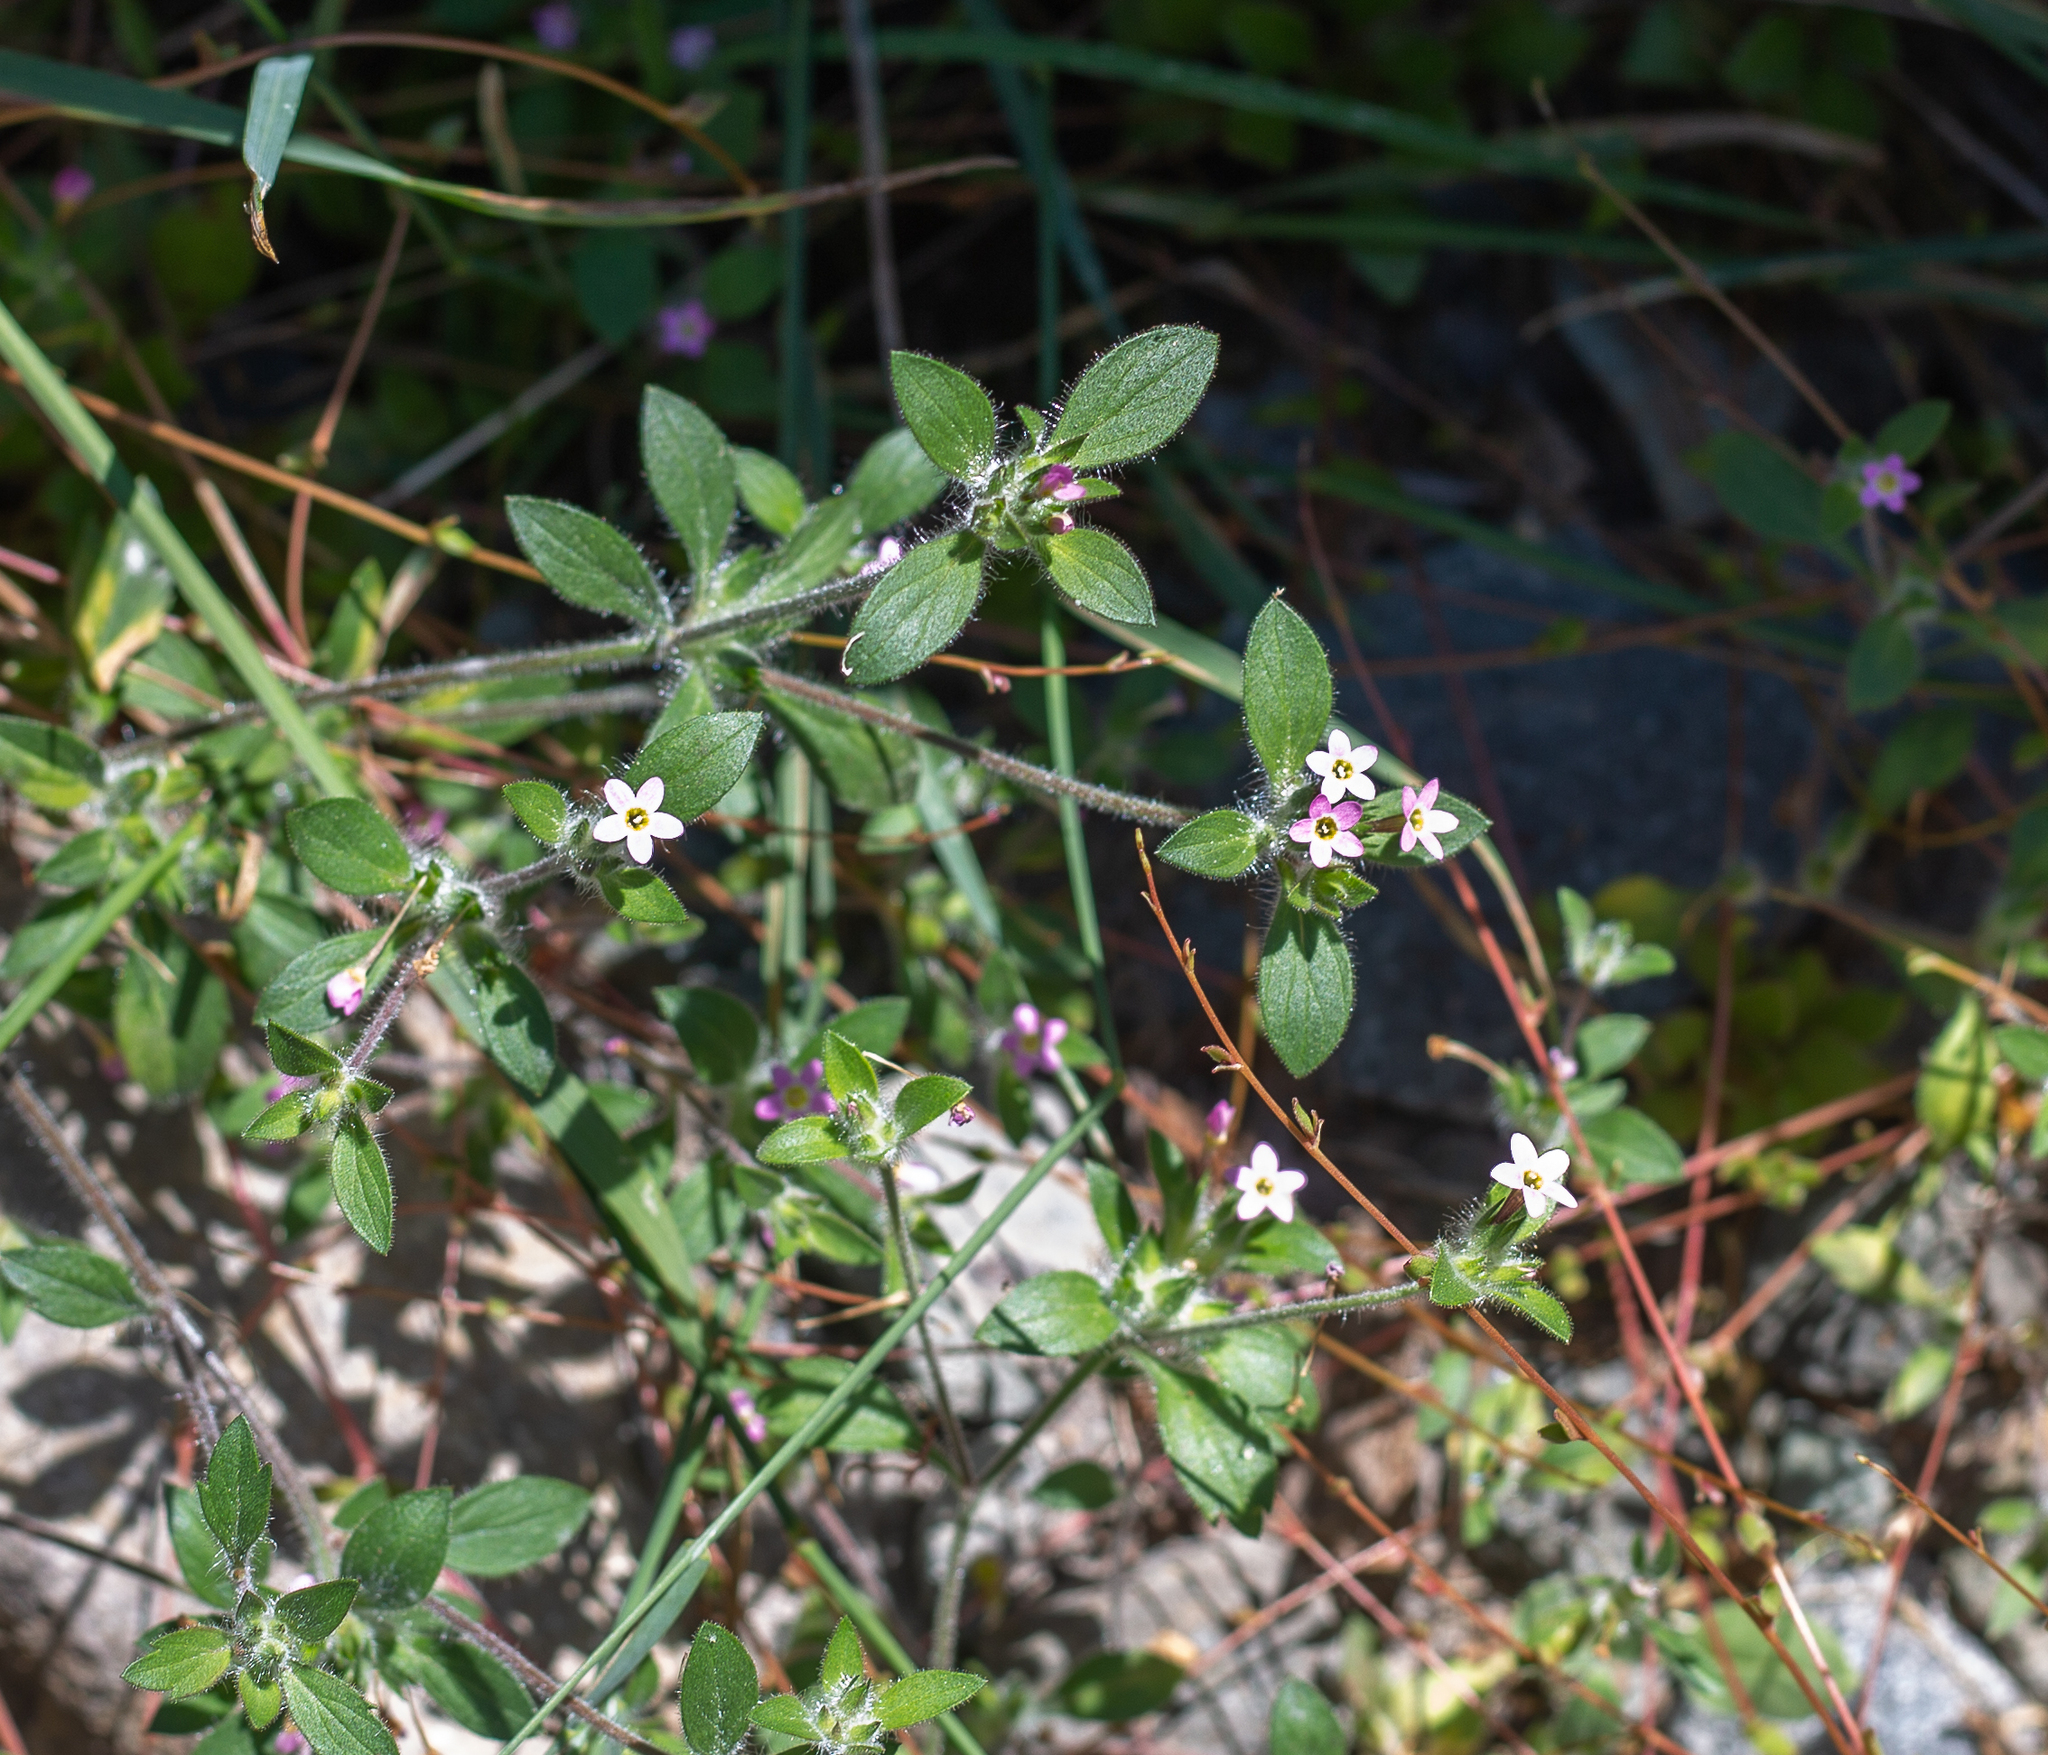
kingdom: Plantae
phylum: Tracheophyta
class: Magnoliopsida
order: Ericales
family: Polemoniaceae
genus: Collomia
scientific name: Collomia heterophylla
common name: Variable-leaved collomia
